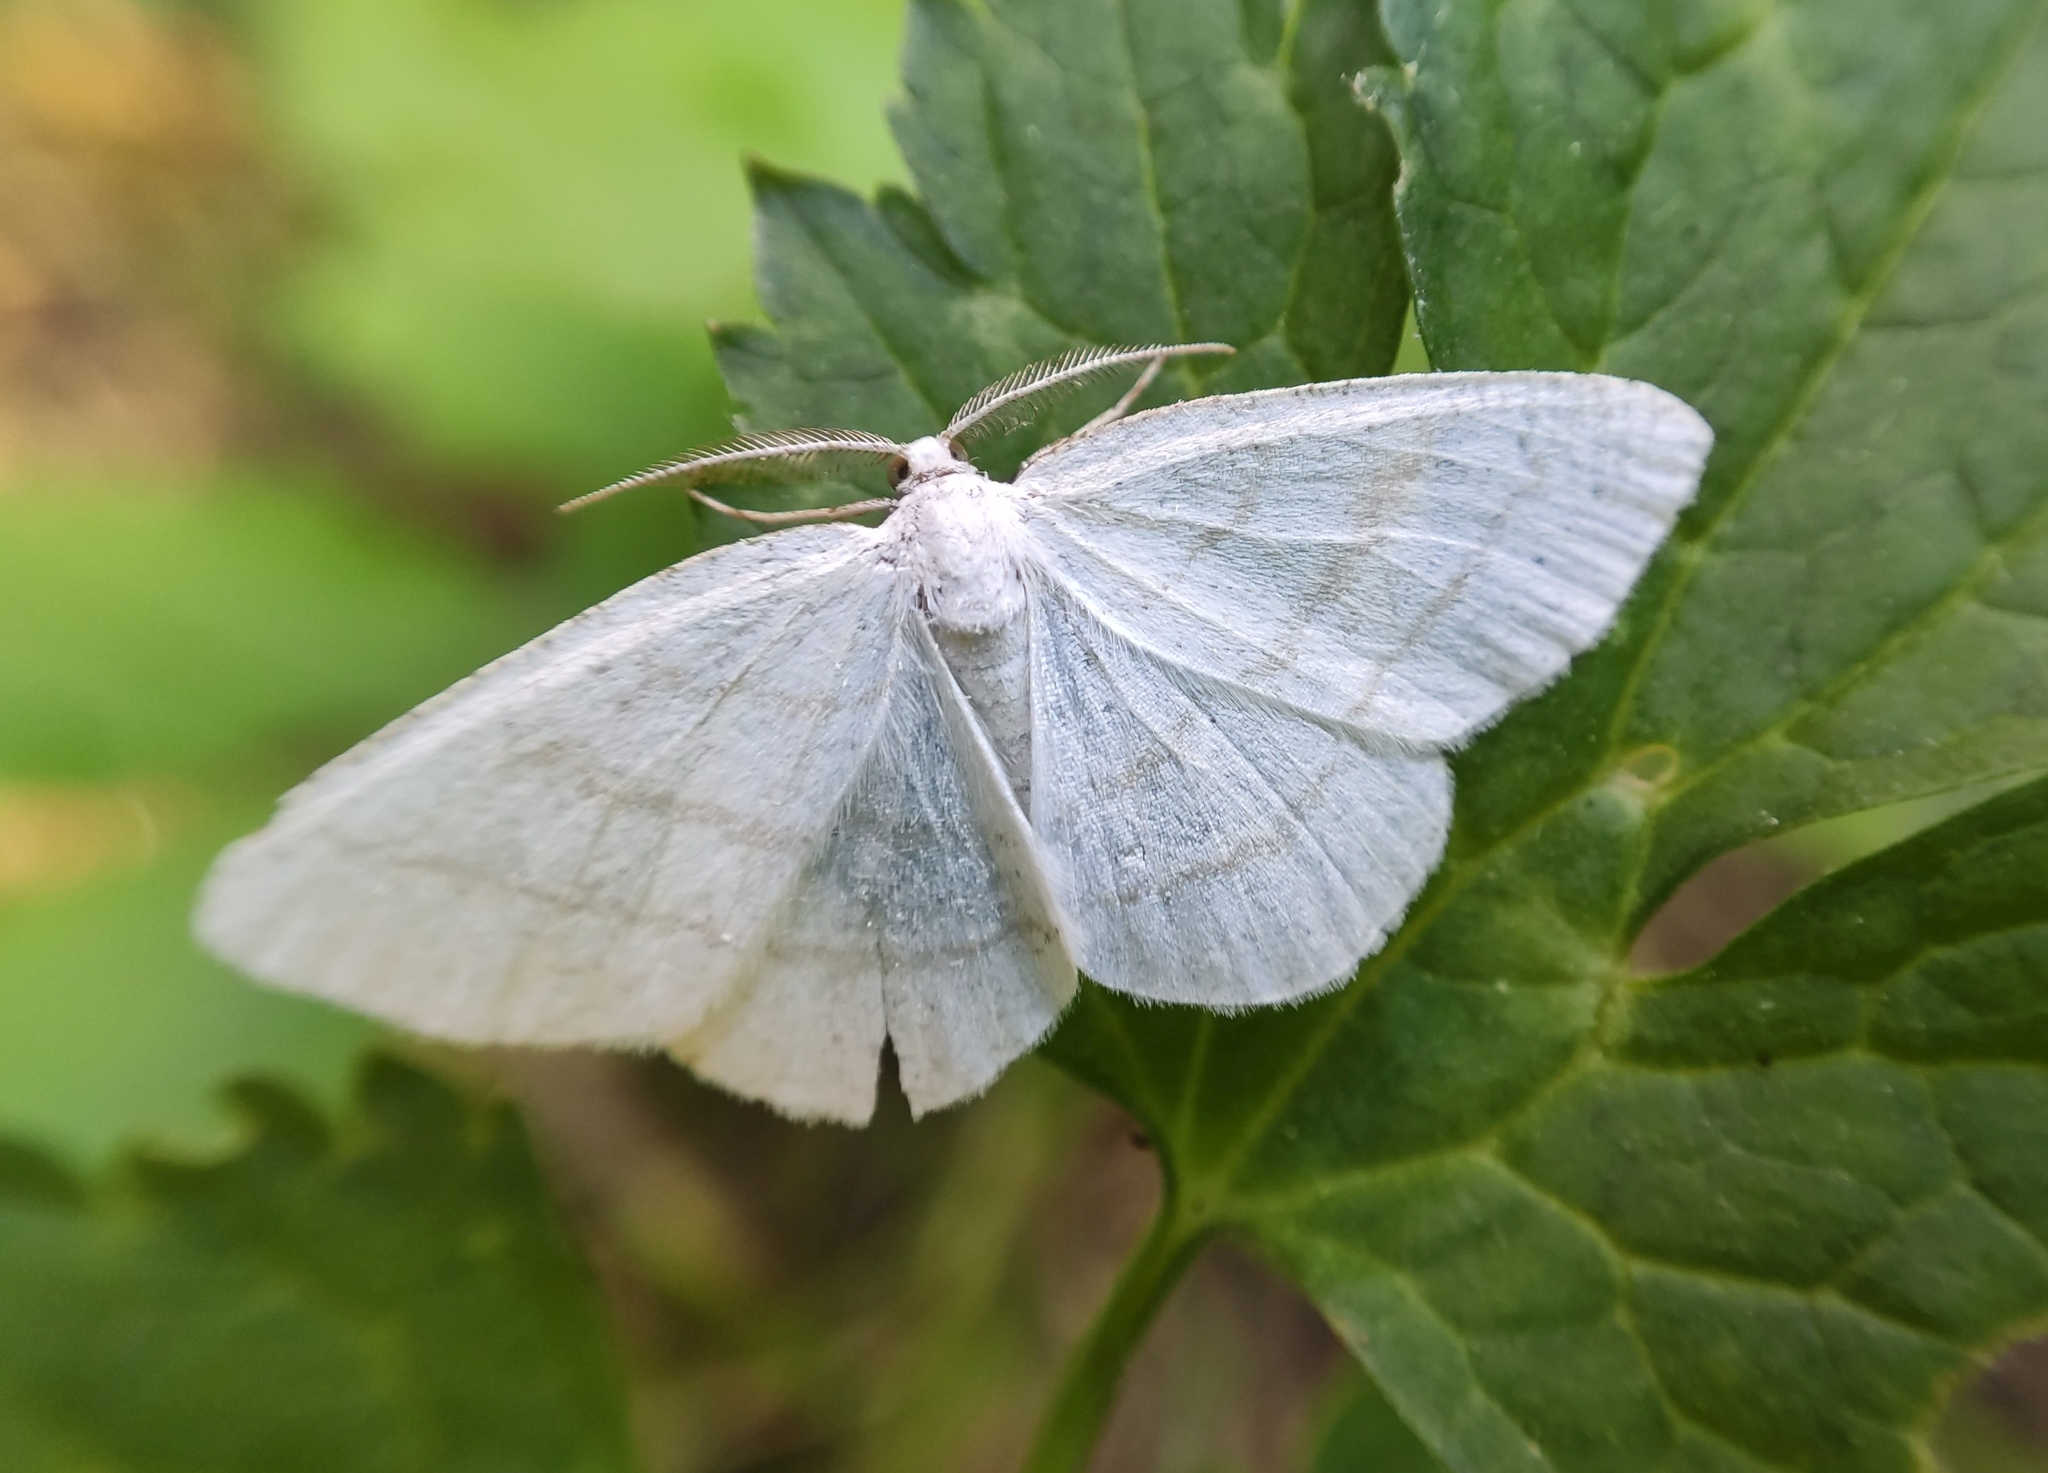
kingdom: Animalia
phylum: Arthropoda
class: Insecta
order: Lepidoptera
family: Geometridae
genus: Cabera
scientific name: Cabera pusaria
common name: Common white wave
